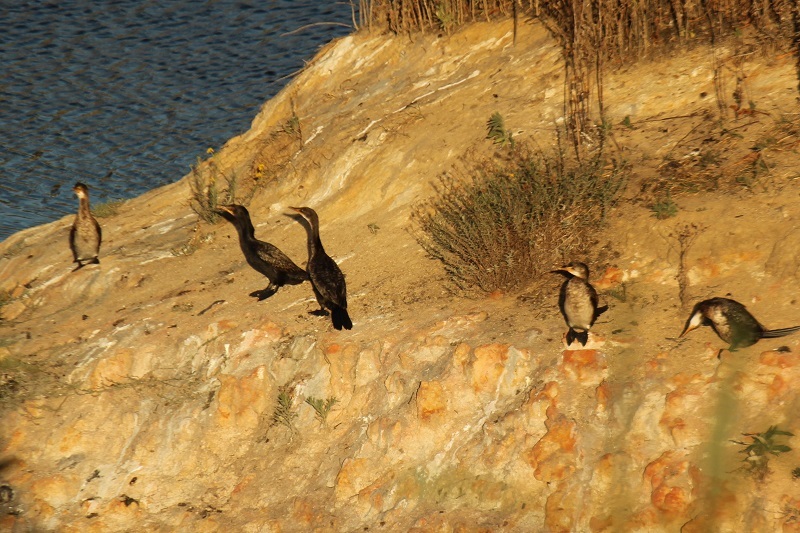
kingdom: Animalia
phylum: Chordata
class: Aves
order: Suliformes
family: Phalacrocoracidae
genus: Microcarbo
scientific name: Microcarbo africanus
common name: Long-tailed cormorant
